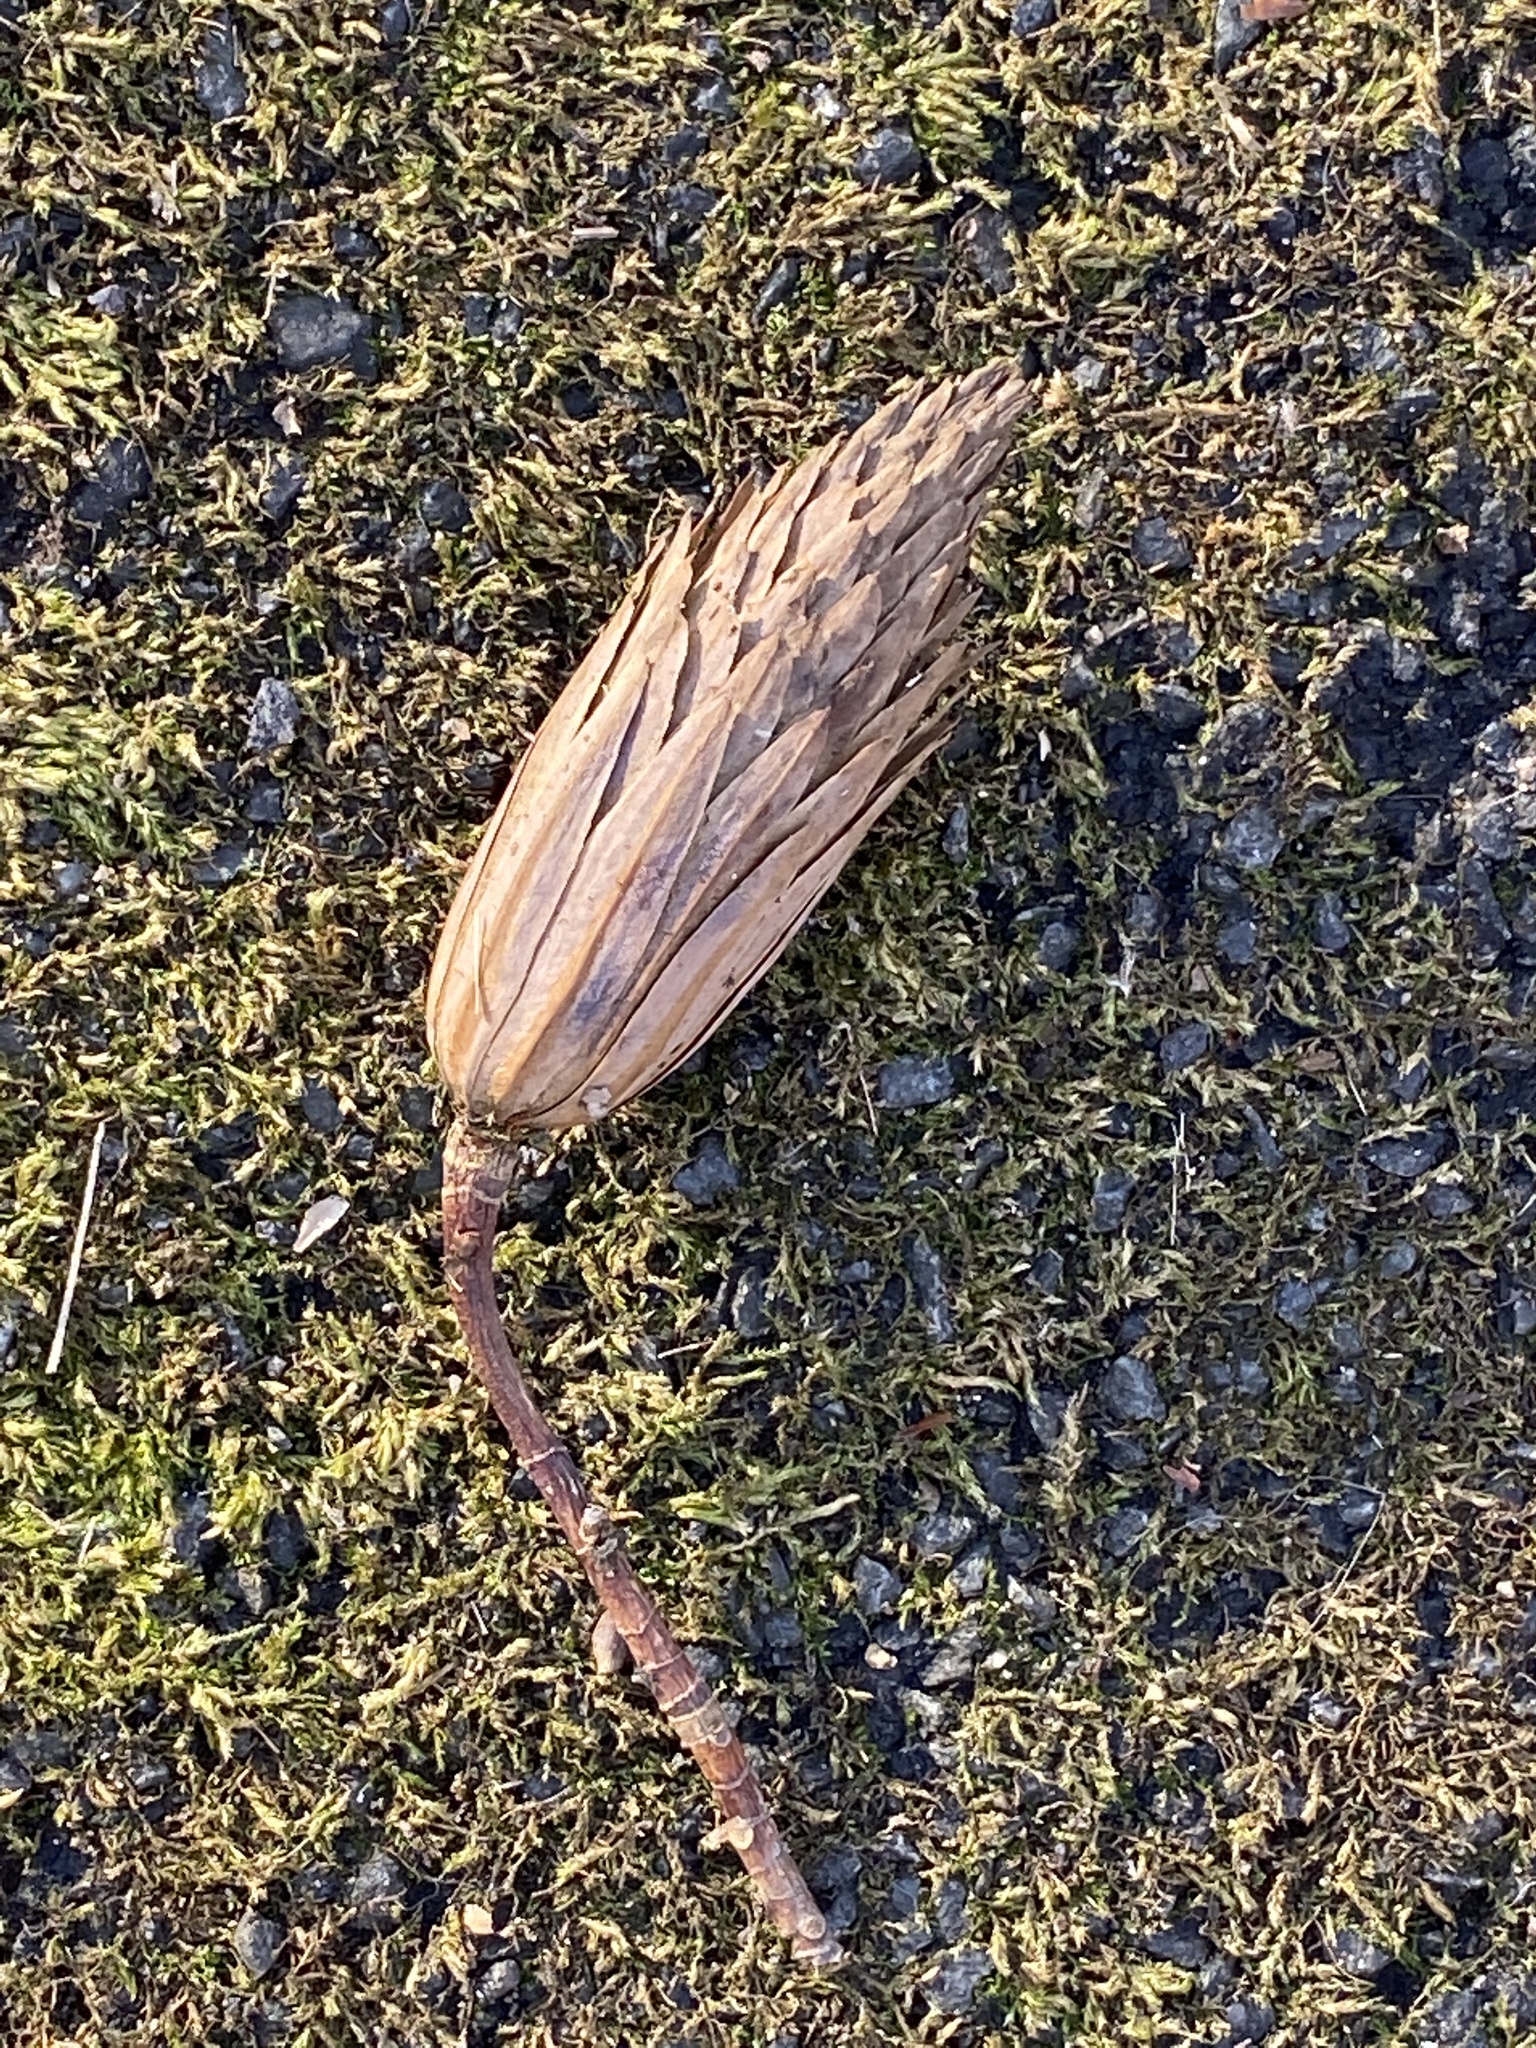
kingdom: Plantae
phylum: Tracheophyta
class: Magnoliopsida
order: Magnoliales
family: Magnoliaceae
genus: Liriodendron
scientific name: Liriodendron tulipifera
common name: Tulip tree
